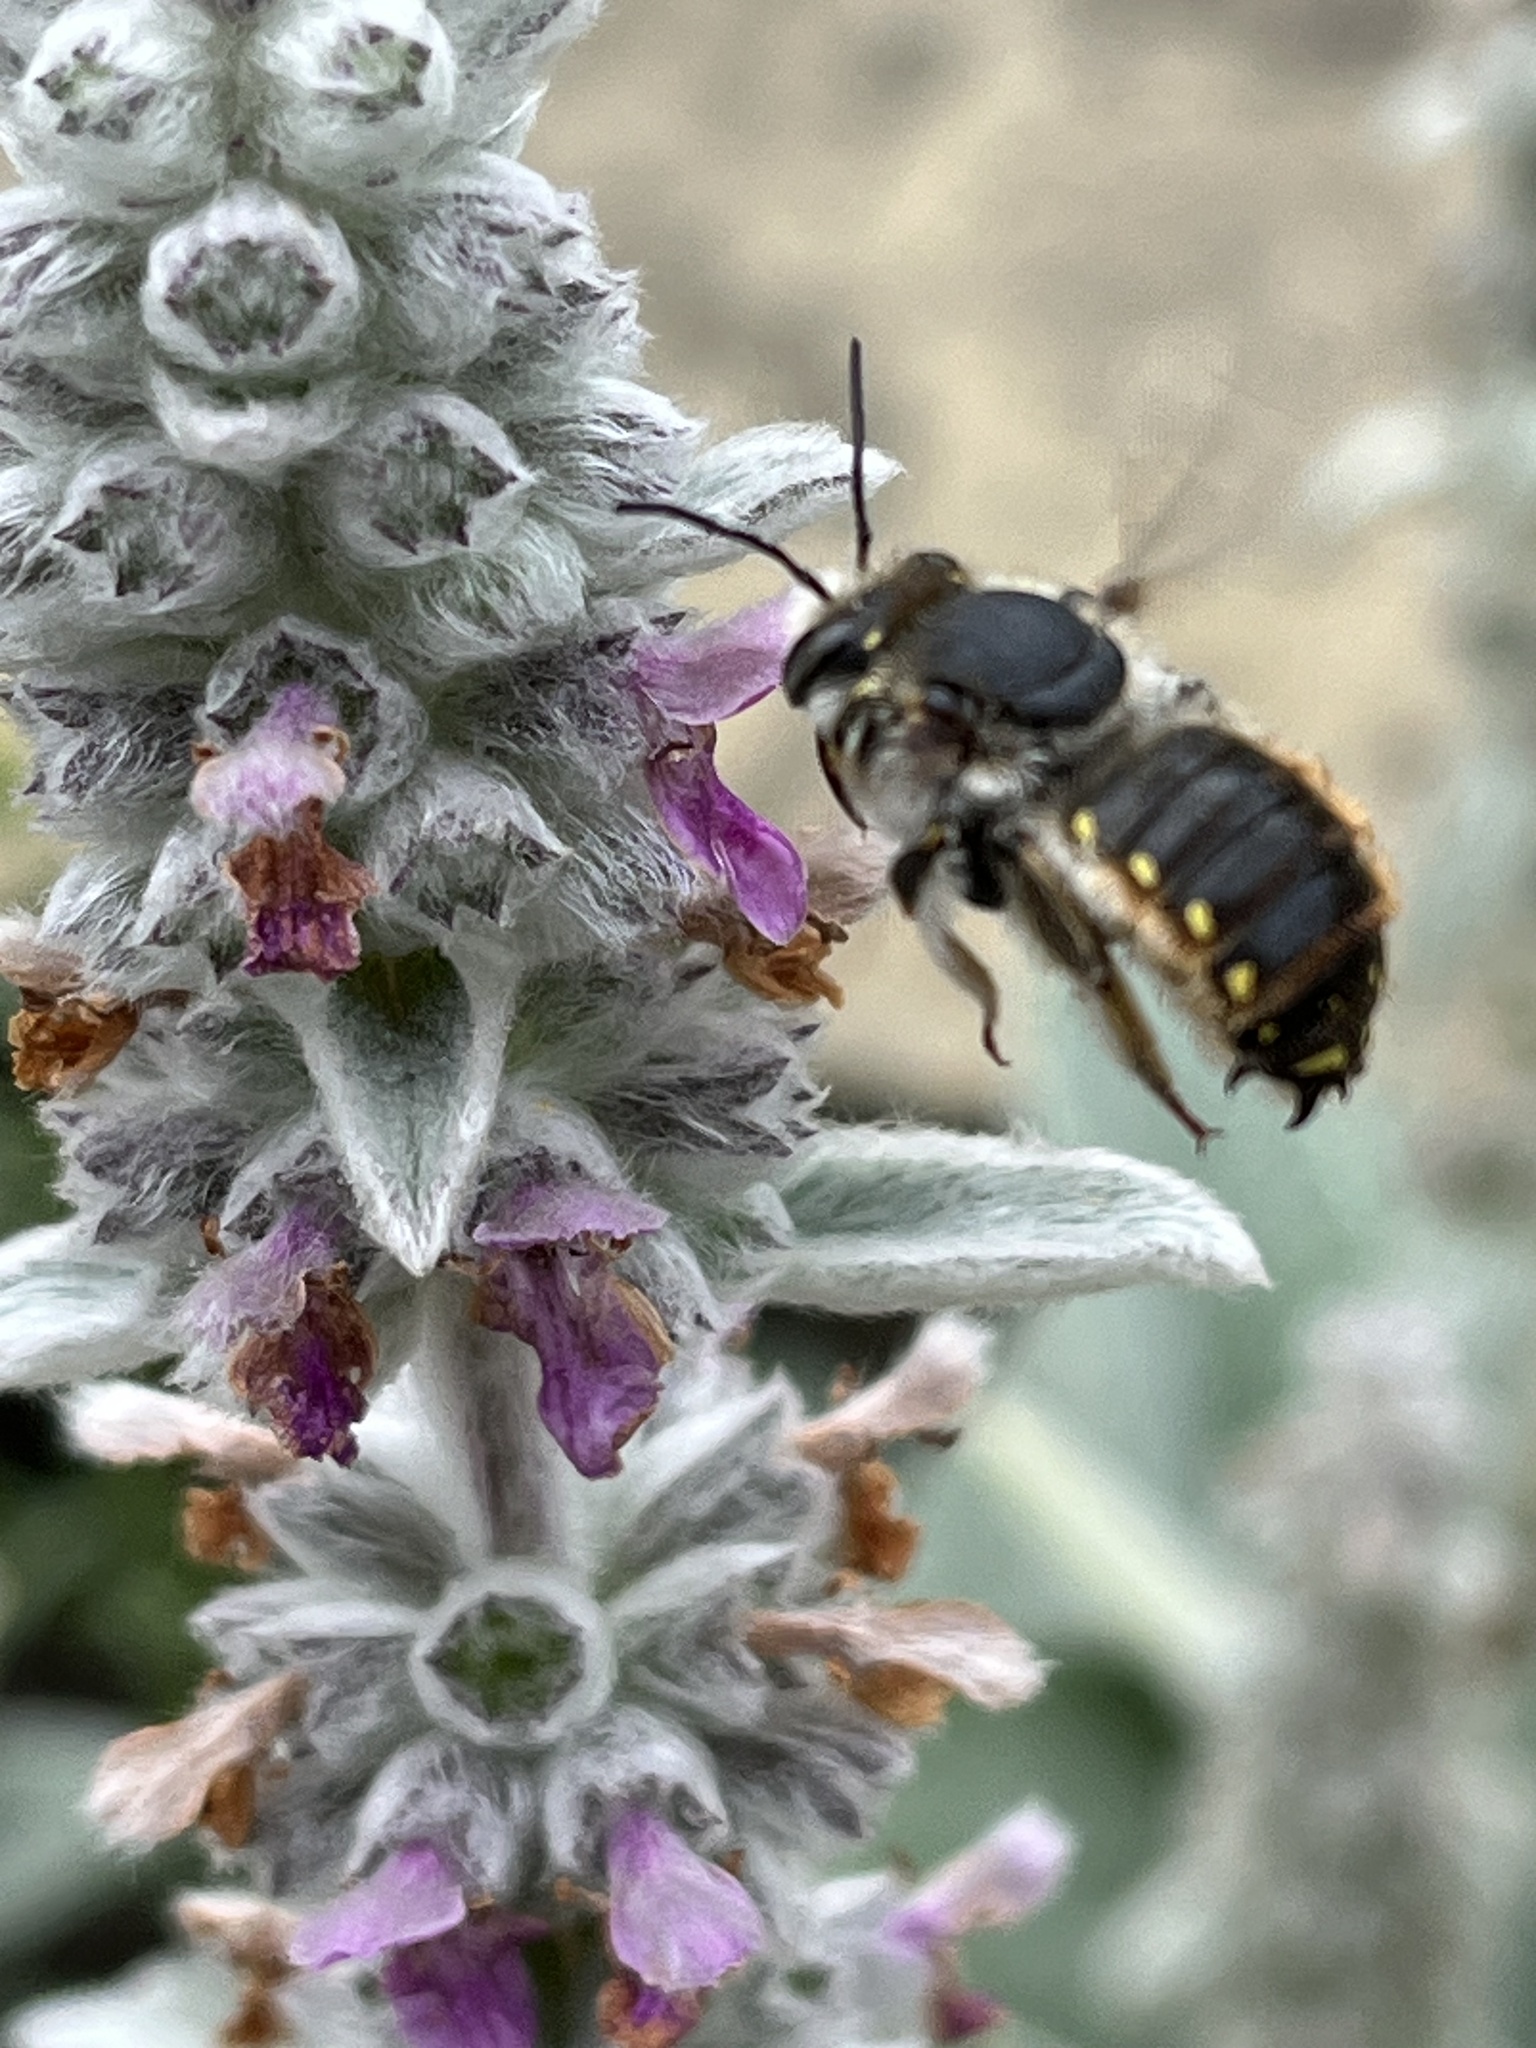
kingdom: Animalia
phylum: Arthropoda
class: Insecta
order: Hymenoptera
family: Megachilidae
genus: Anthidium
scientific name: Anthidium manicatum
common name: Wool carder bee
